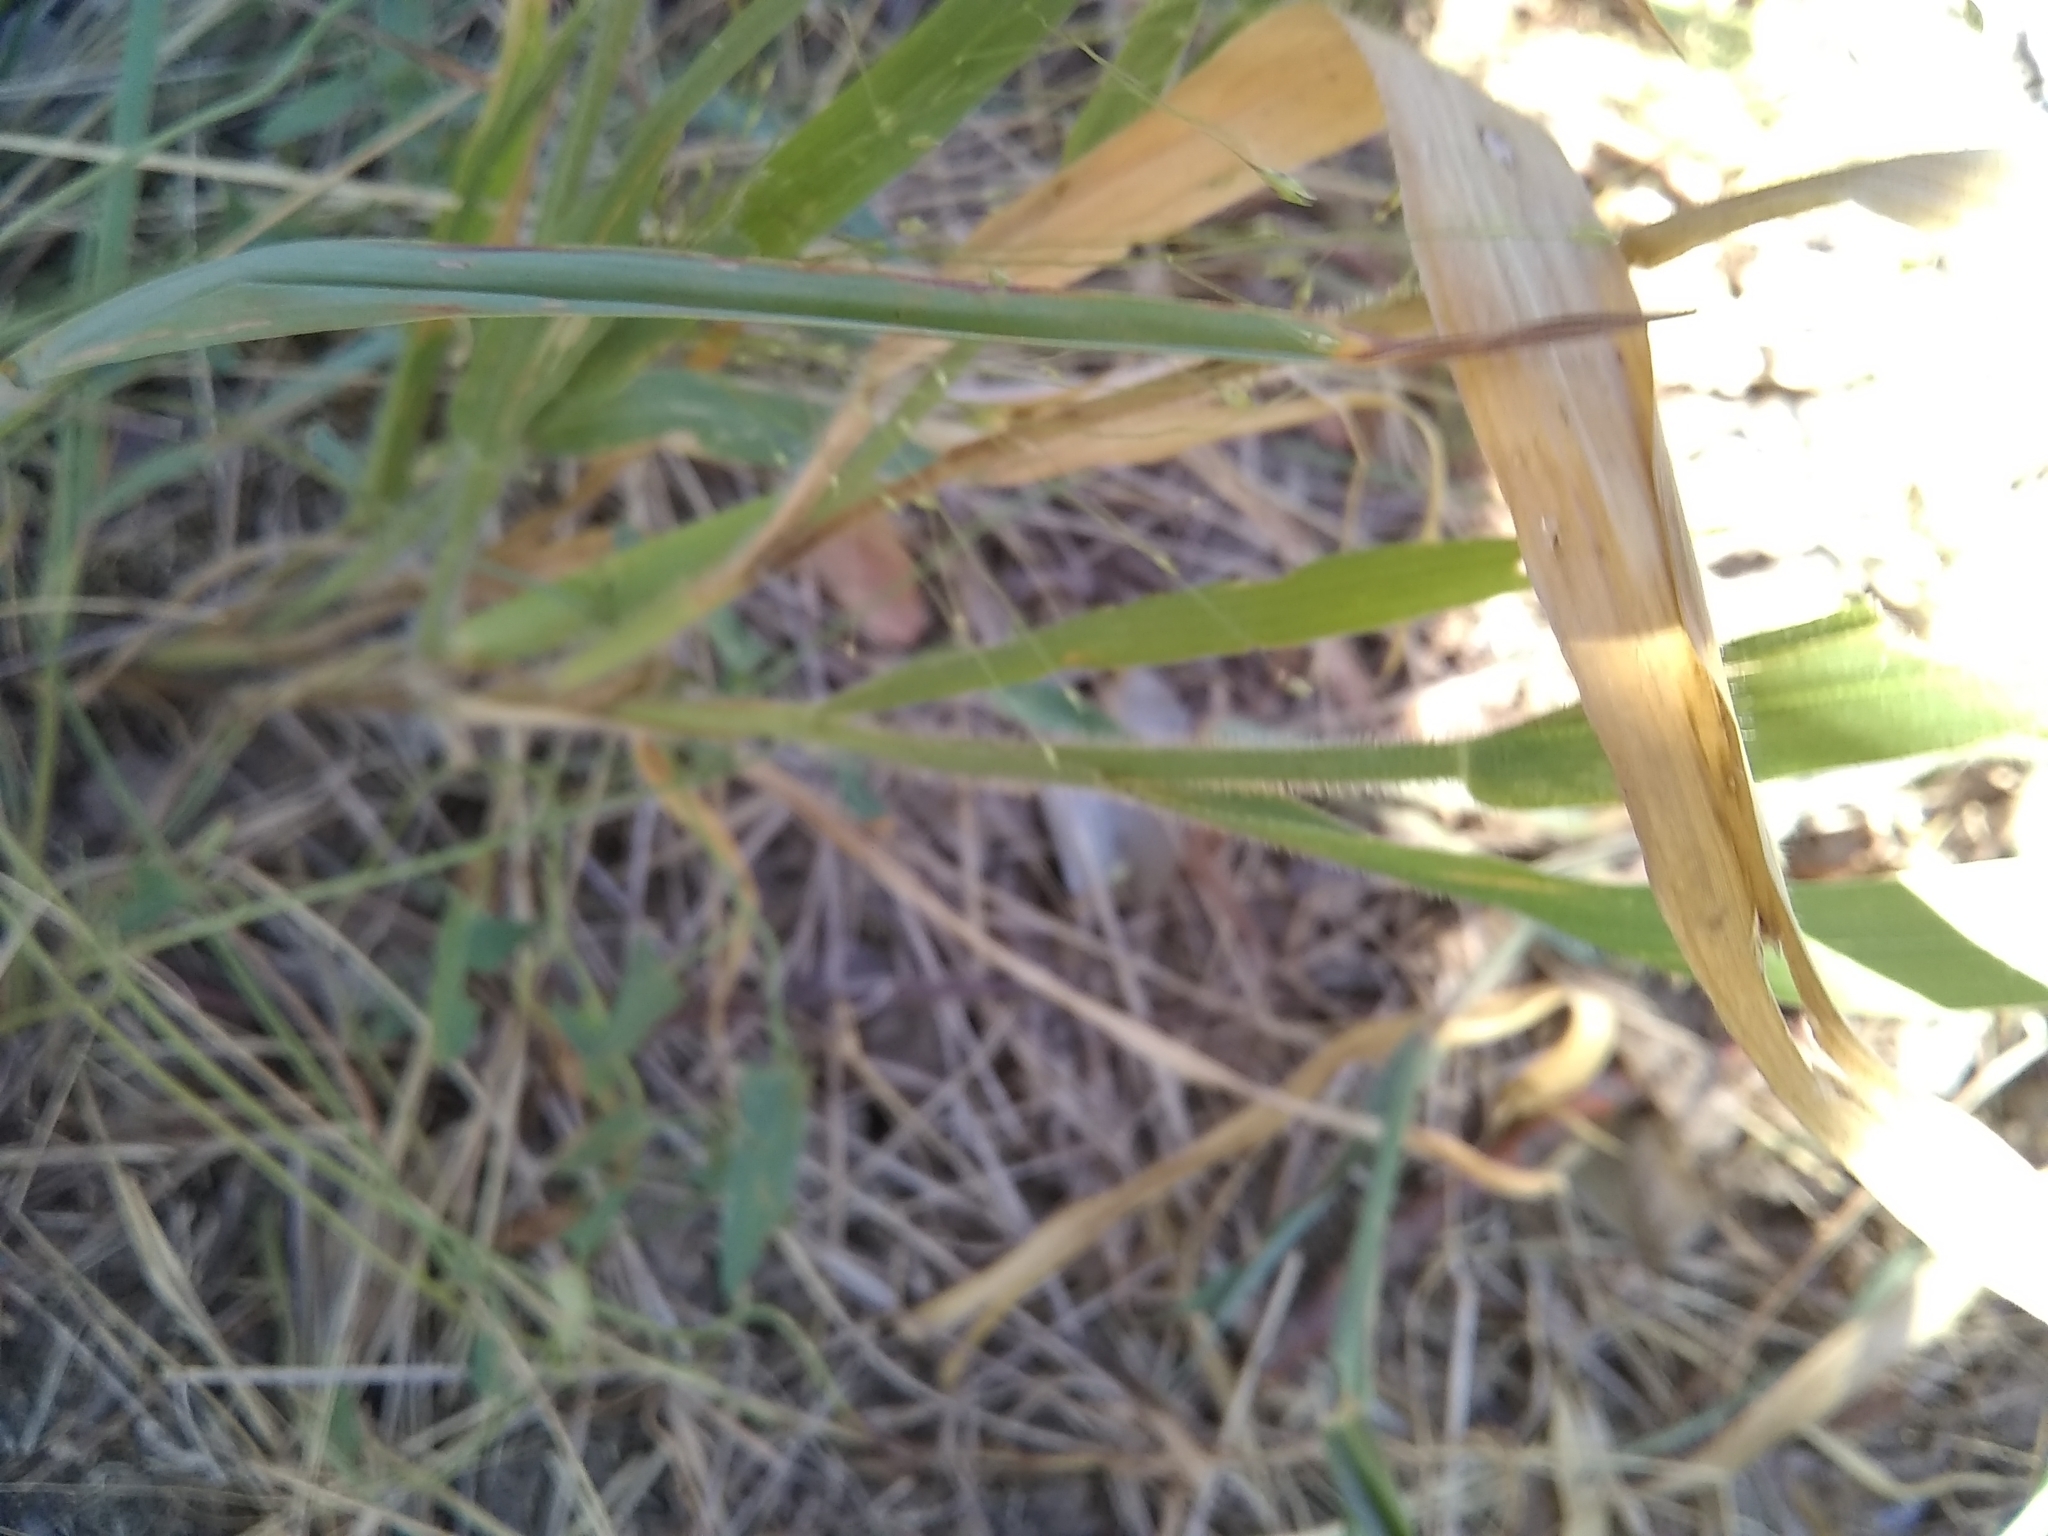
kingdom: Plantae
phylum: Tracheophyta
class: Liliopsida
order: Poales
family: Poaceae
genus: Panicum
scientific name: Panicum capillare
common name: Witch-grass
